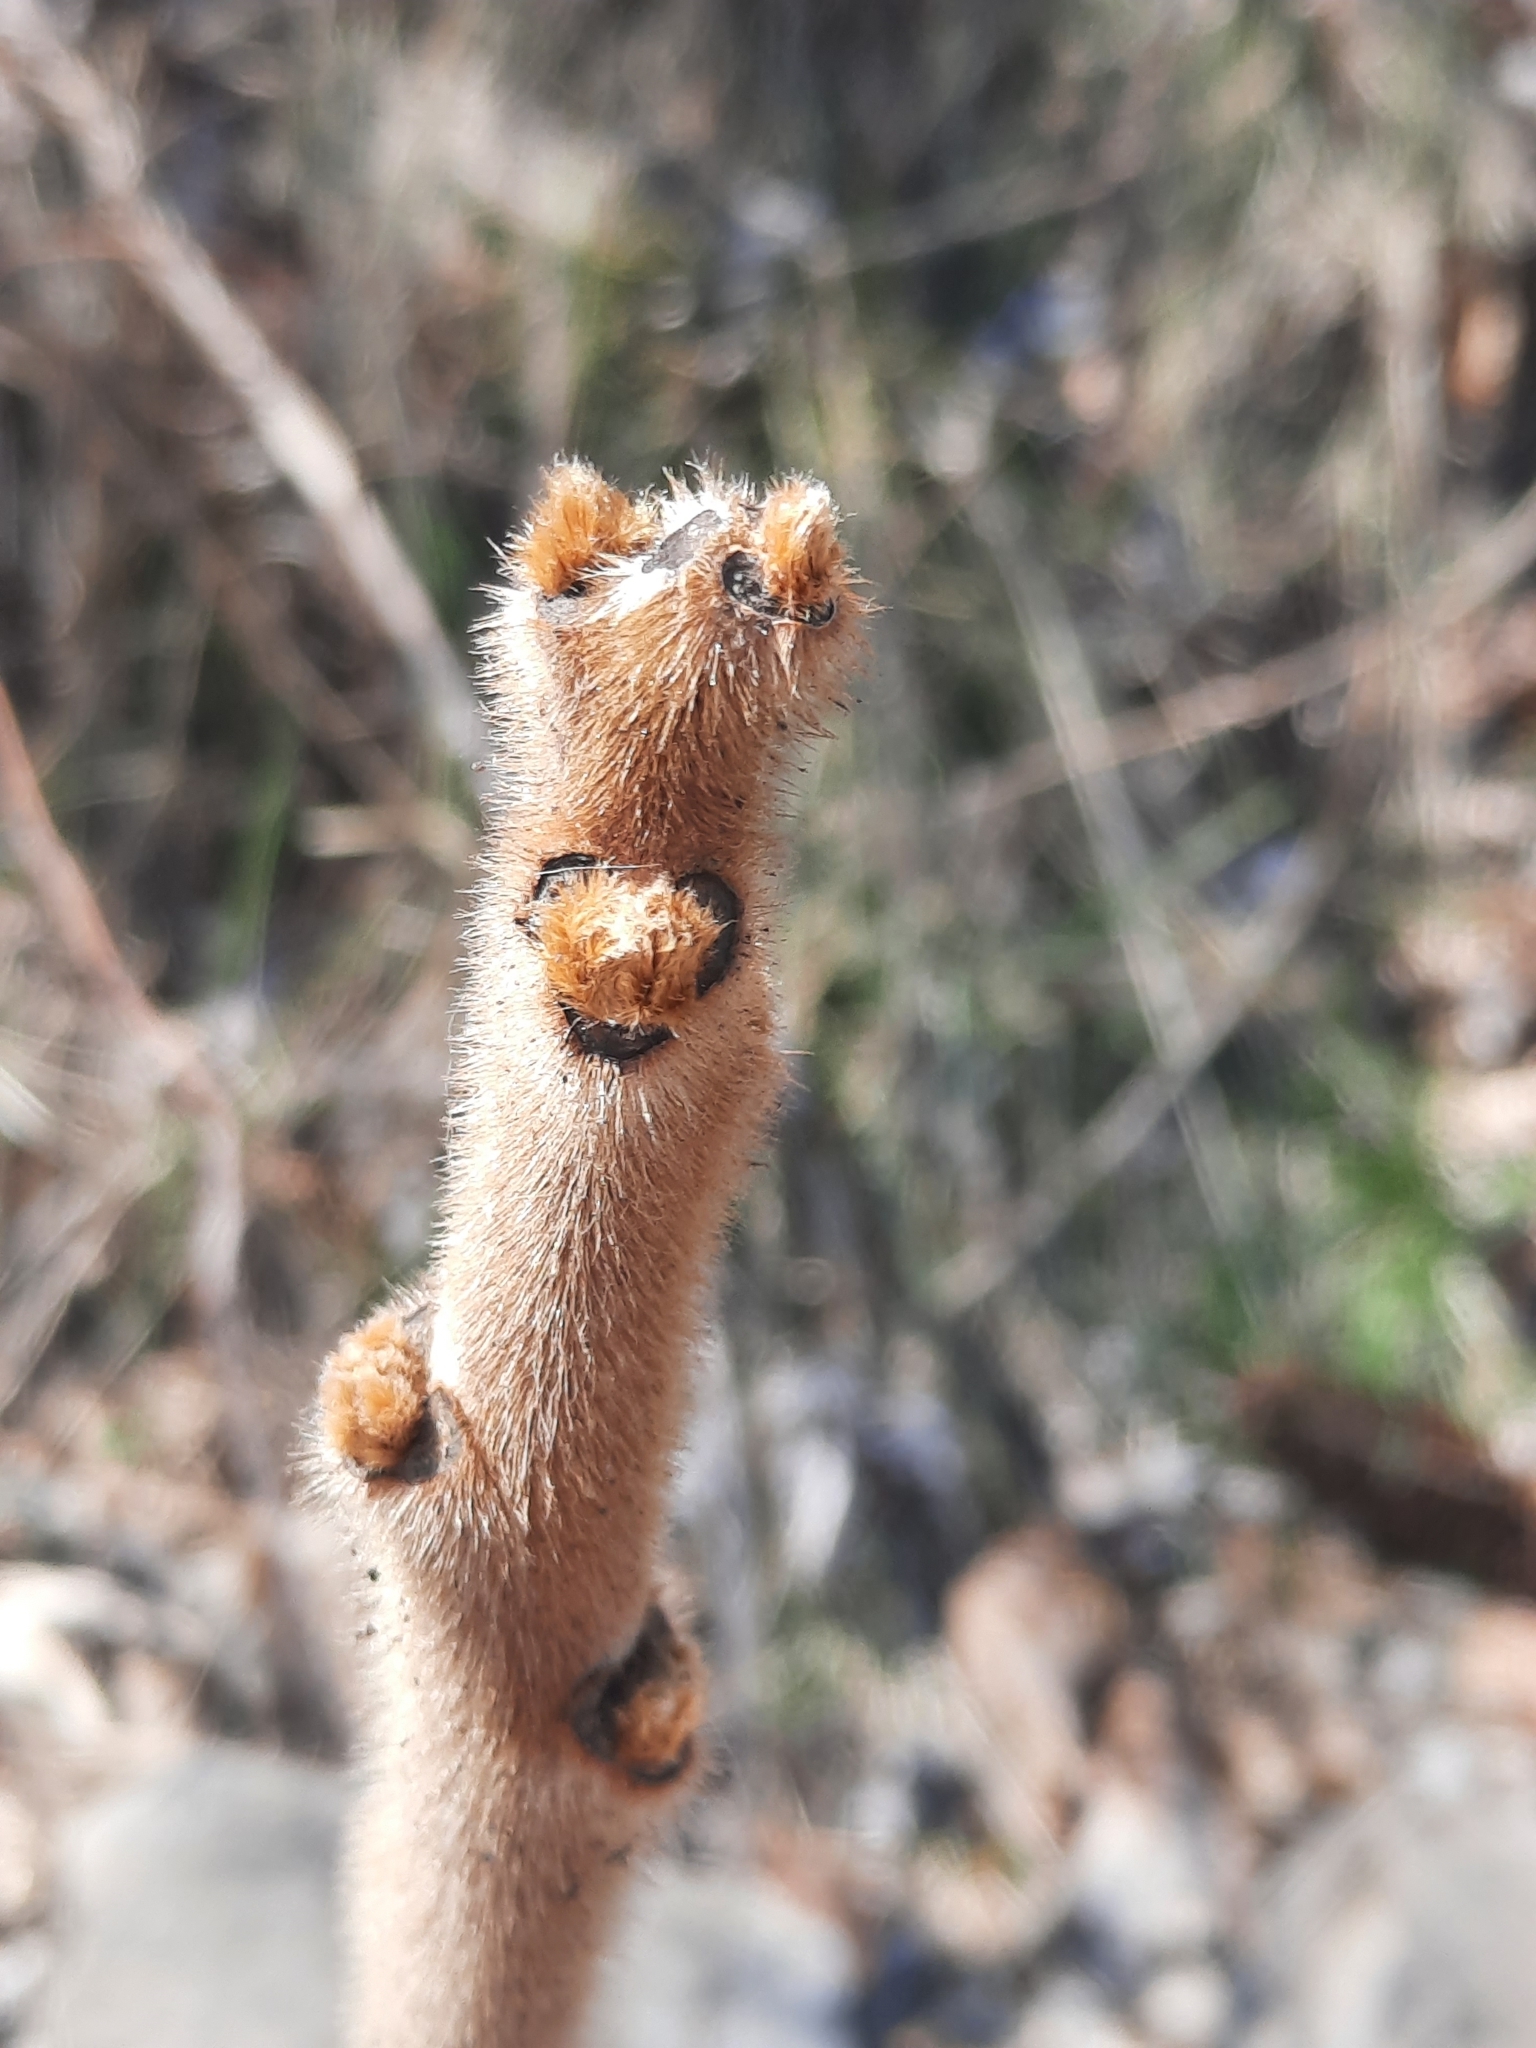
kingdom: Plantae
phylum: Tracheophyta
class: Magnoliopsida
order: Sapindales
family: Anacardiaceae
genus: Rhus
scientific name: Rhus typhina
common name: Staghorn sumac
